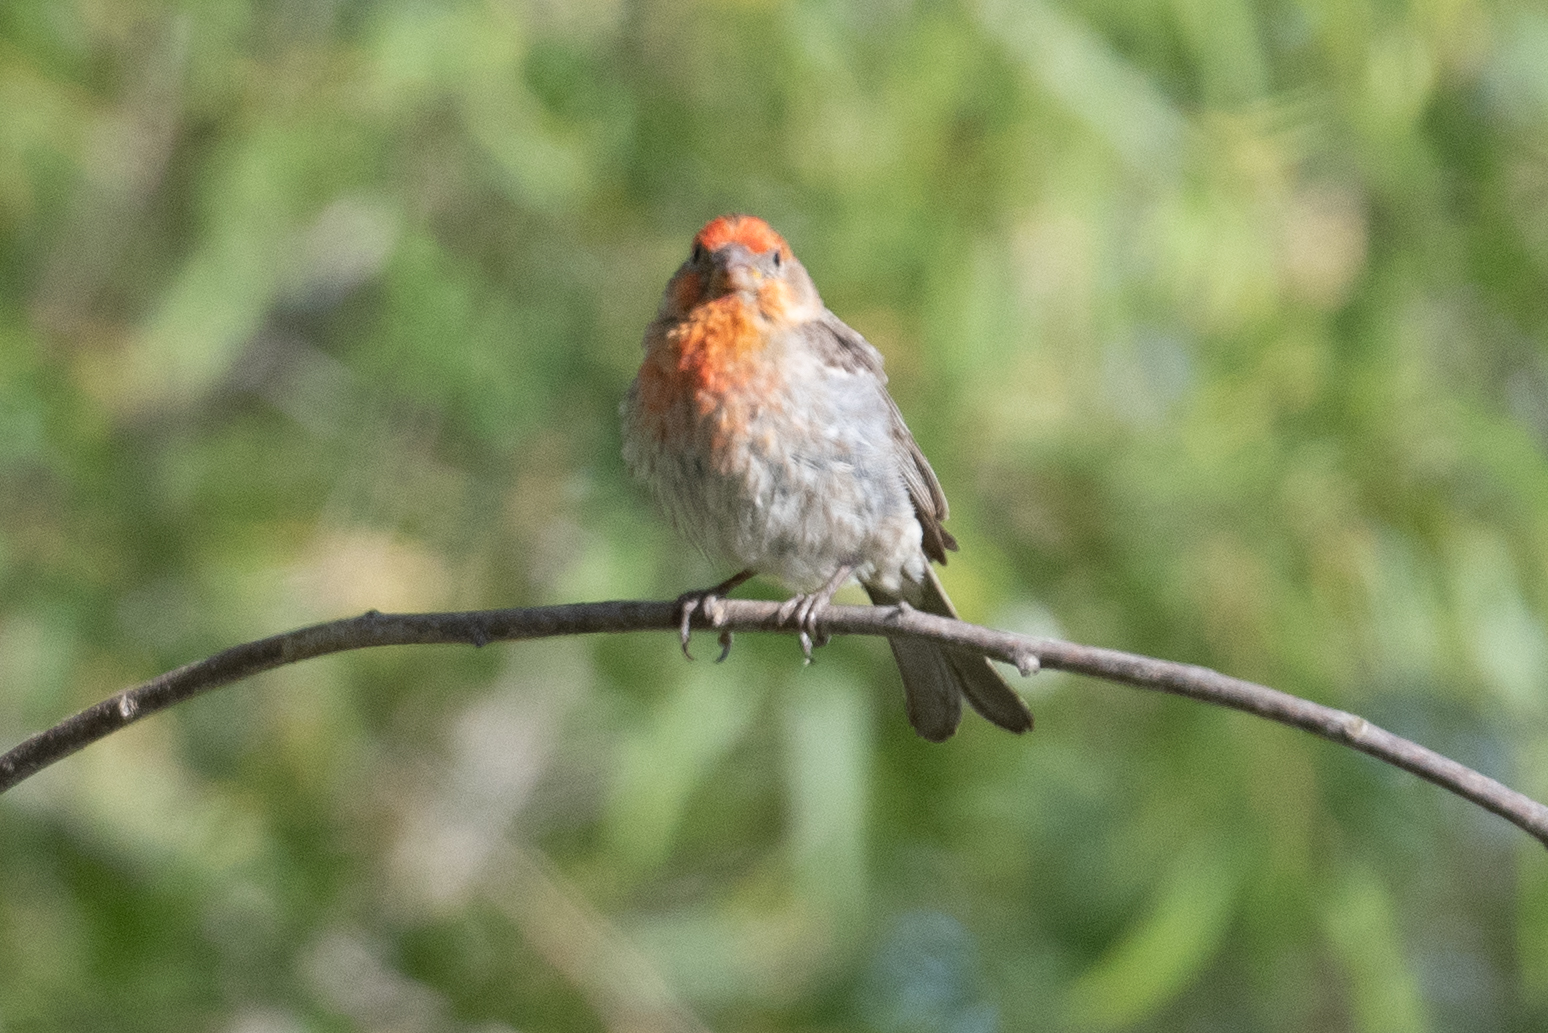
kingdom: Animalia
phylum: Chordata
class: Aves
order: Passeriformes
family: Fringillidae
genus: Haemorhous
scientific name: Haemorhous mexicanus
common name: House finch
